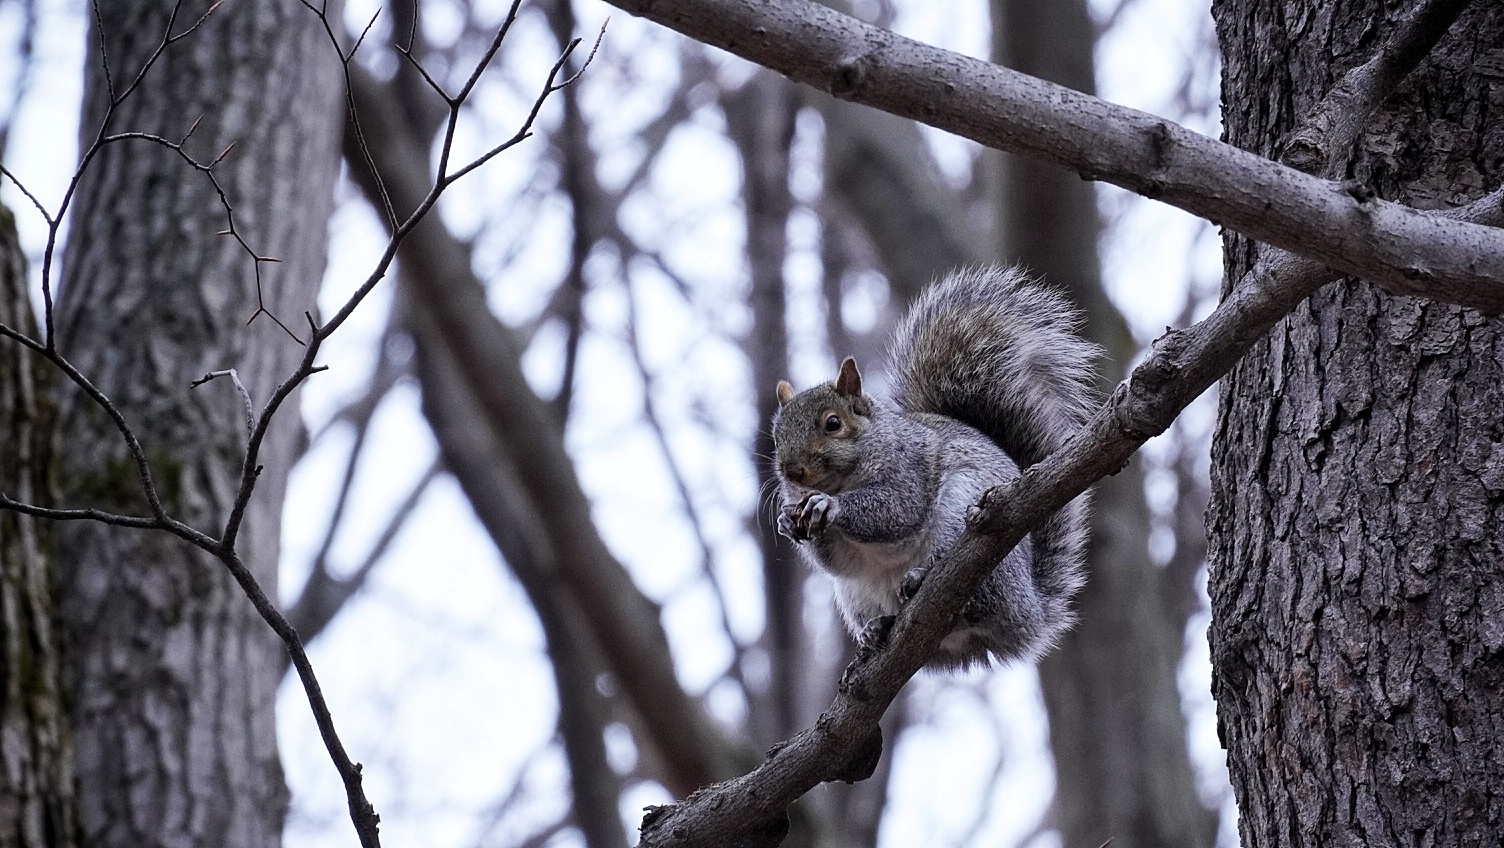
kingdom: Animalia
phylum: Chordata
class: Mammalia
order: Rodentia
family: Sciuridae
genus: Sciurus
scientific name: Sciurus carolinensis
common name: Eastern gray squirrel
